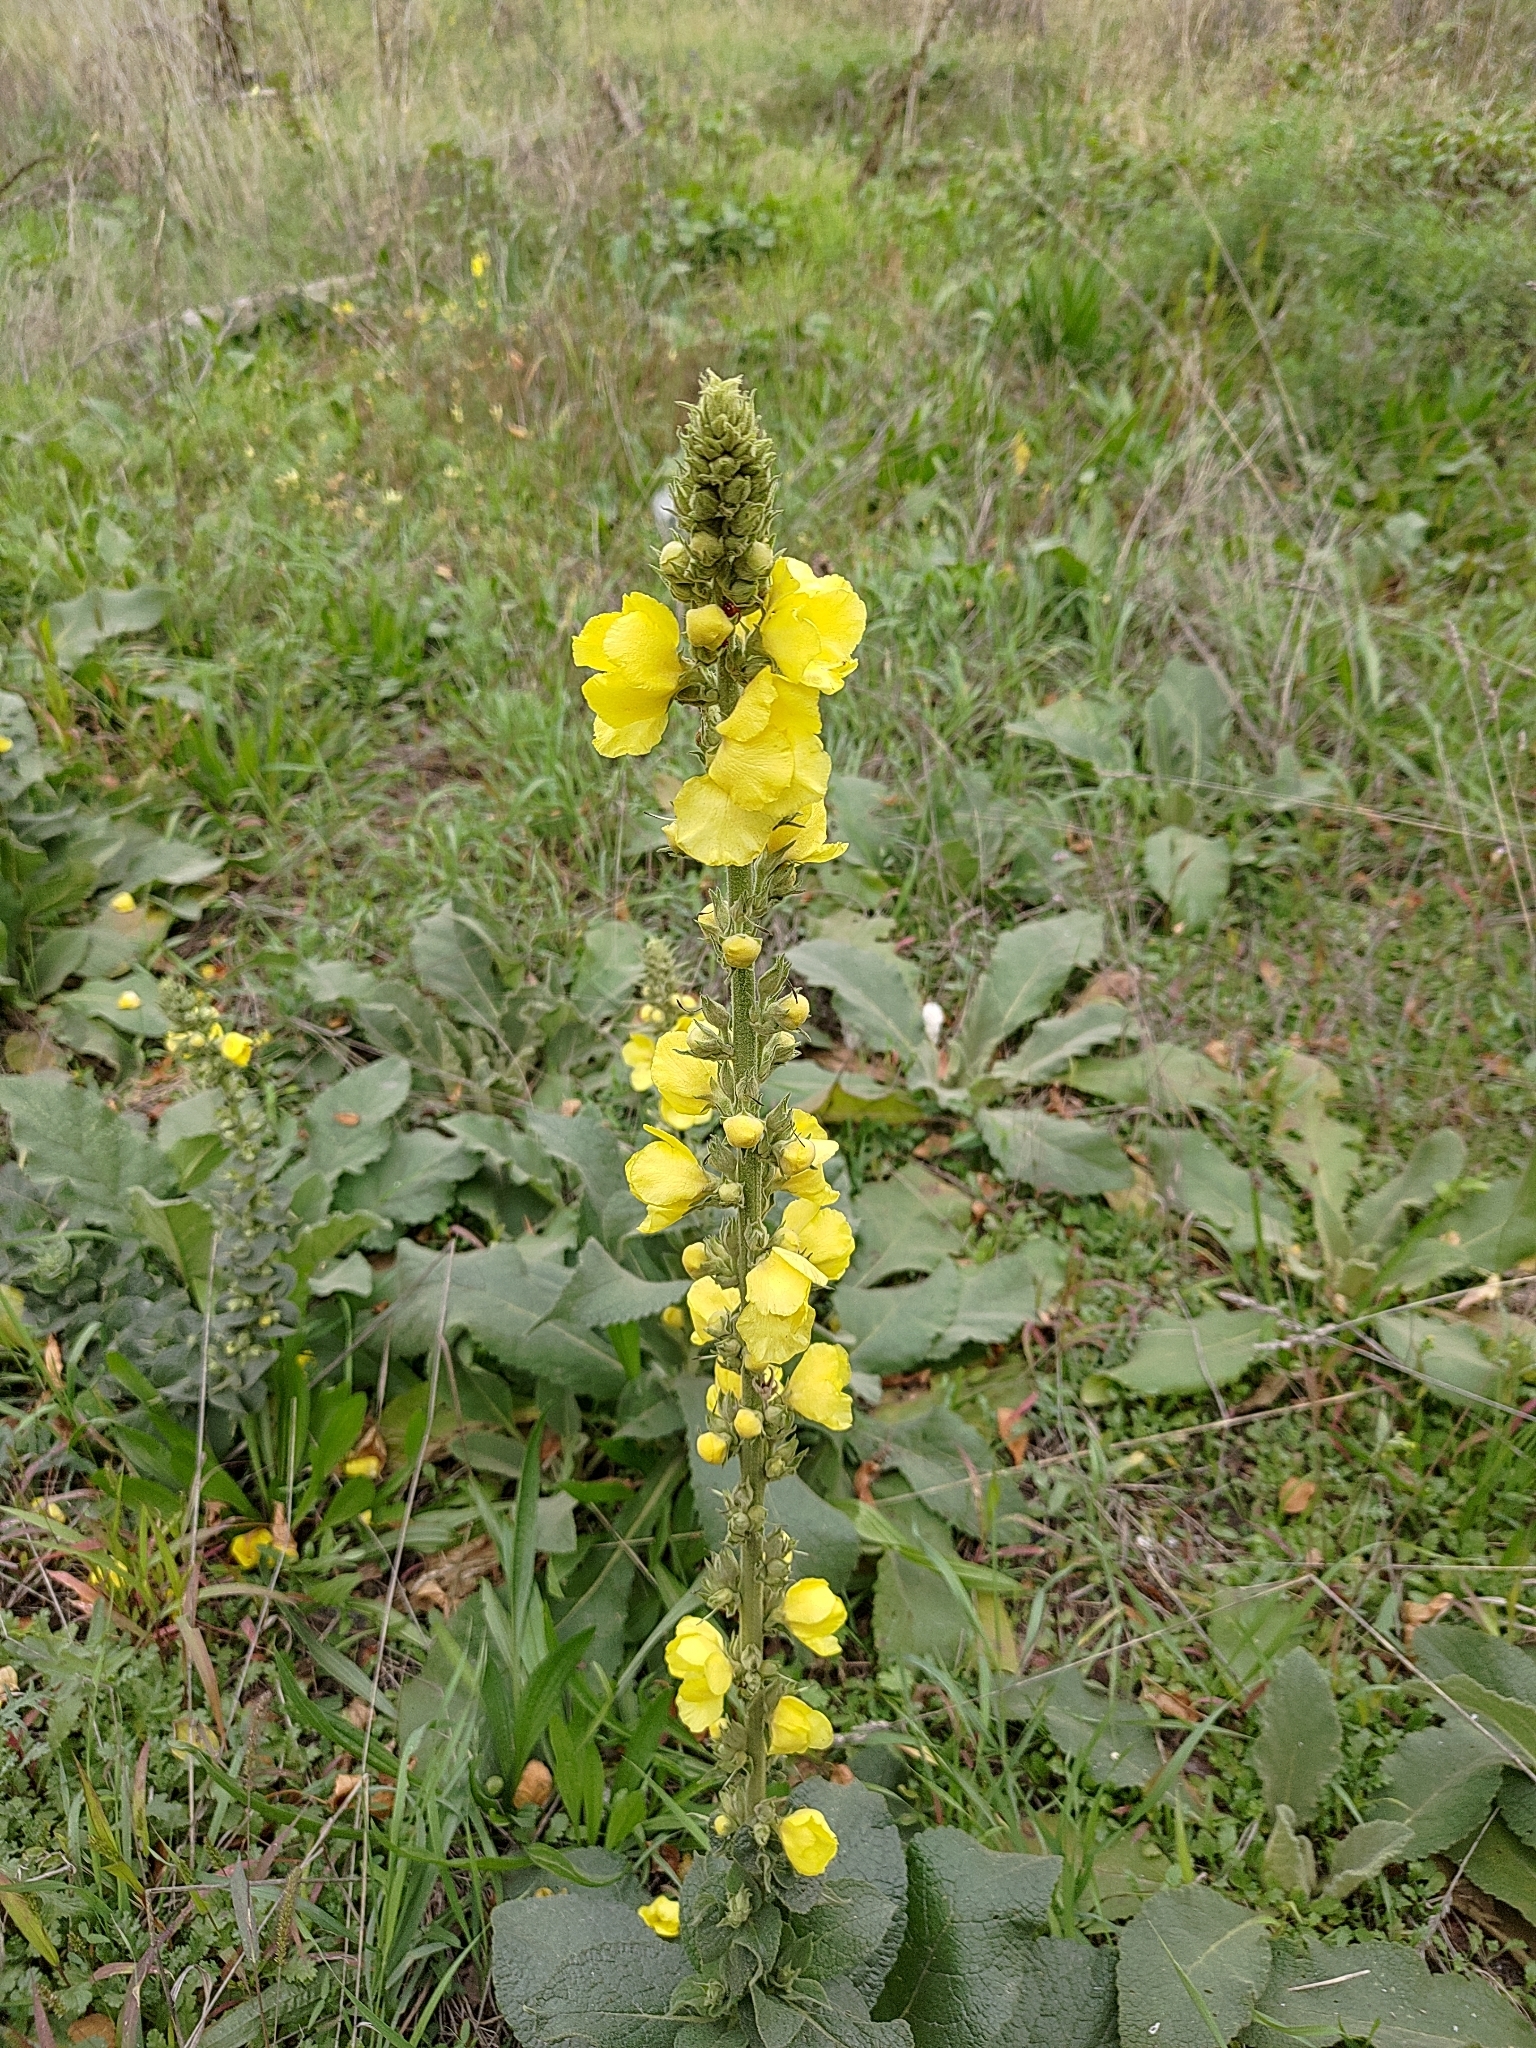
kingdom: Plantae
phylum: Tracheophyta
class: Magnoliopsida
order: Lamiales
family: Scrophulariaceae
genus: Verbascum
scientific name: Verbascum phlomoides
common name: Orange mullein
